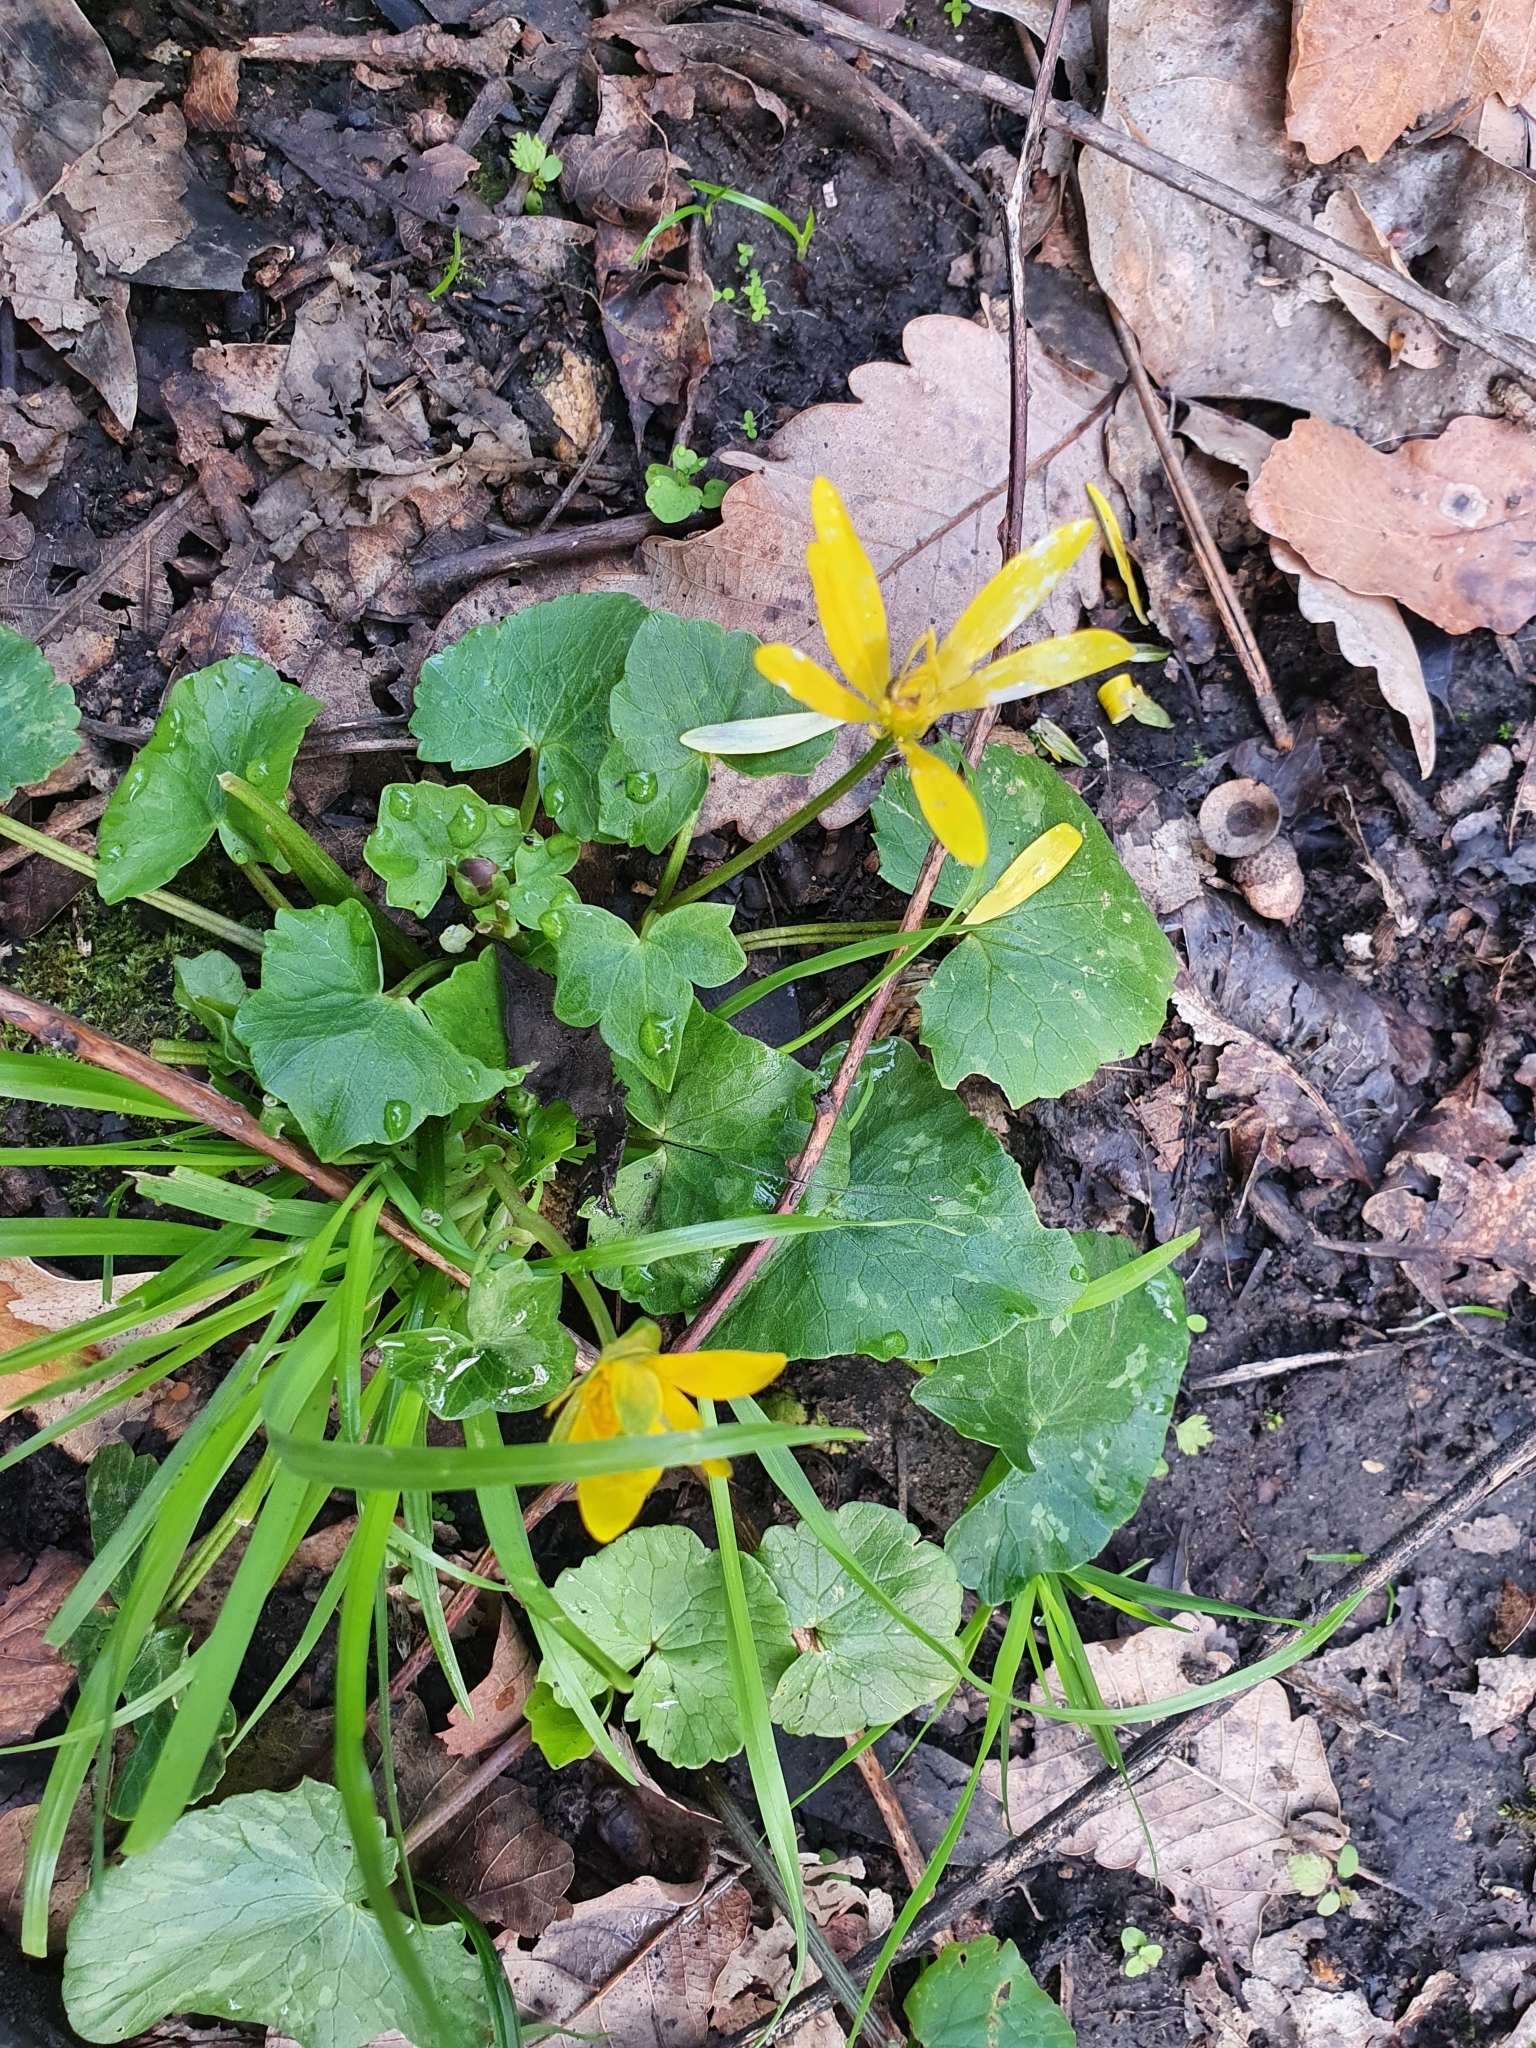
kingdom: Plantae
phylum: Tracheophyta
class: Magnoliopsida
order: Ranunculales
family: Ranunculaceae
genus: Ficaria
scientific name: Ficaria verna
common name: Lesser celandine
